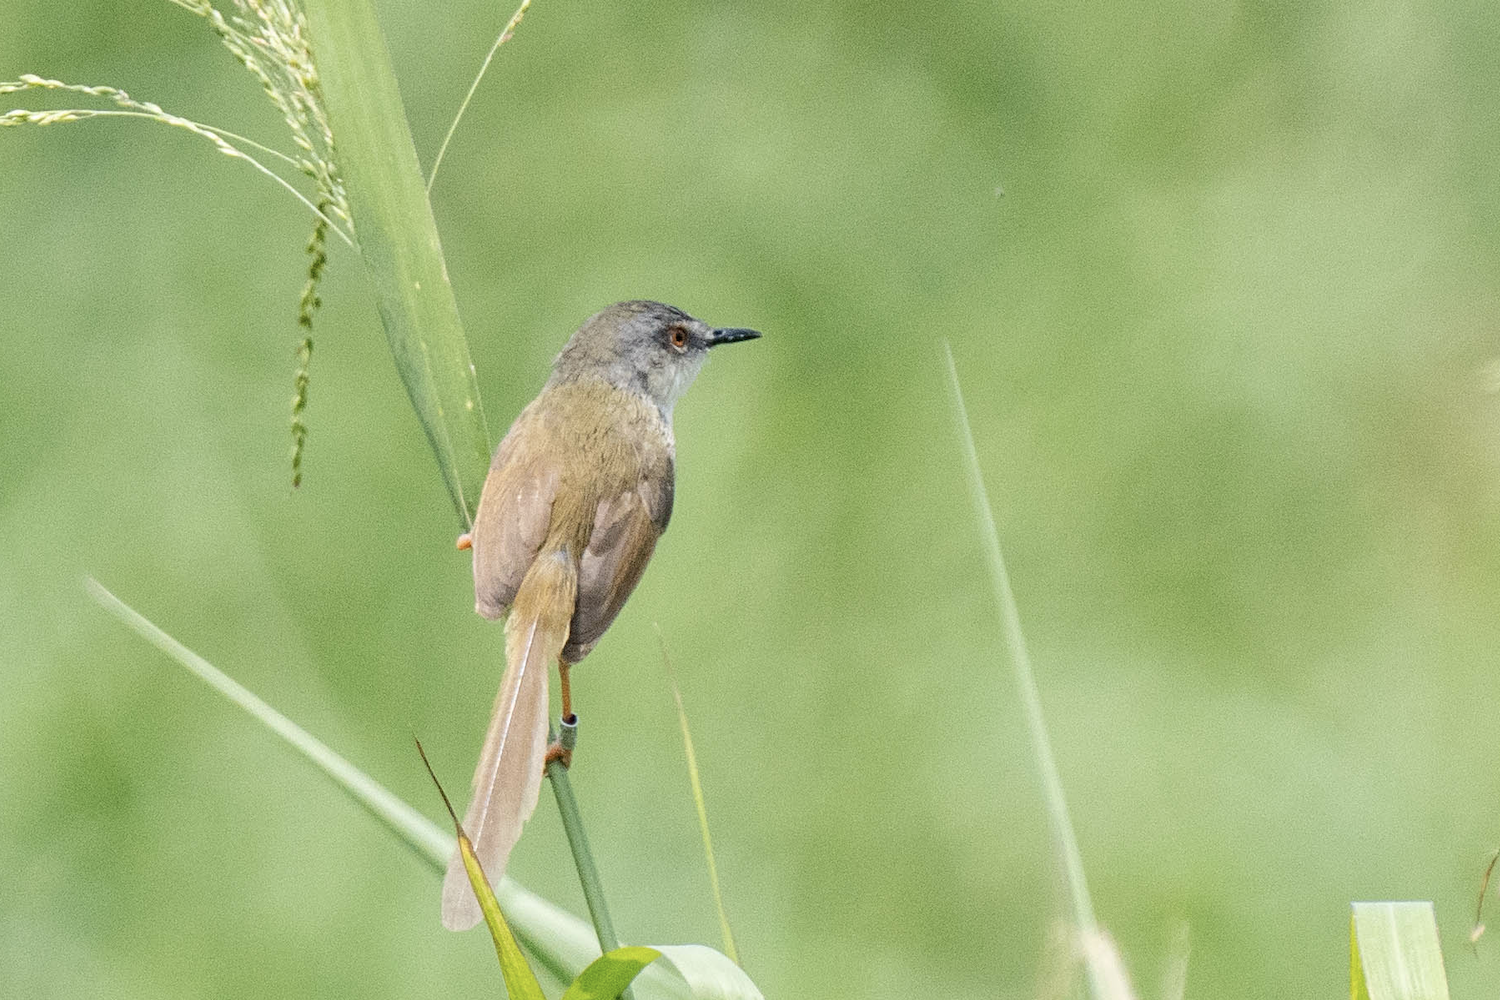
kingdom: Animalia
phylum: Chordata
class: Aves
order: Passeriformes
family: Cisticolidae
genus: Prinia
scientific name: Prinia flaviventris
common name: Yellow-bellied prinia
